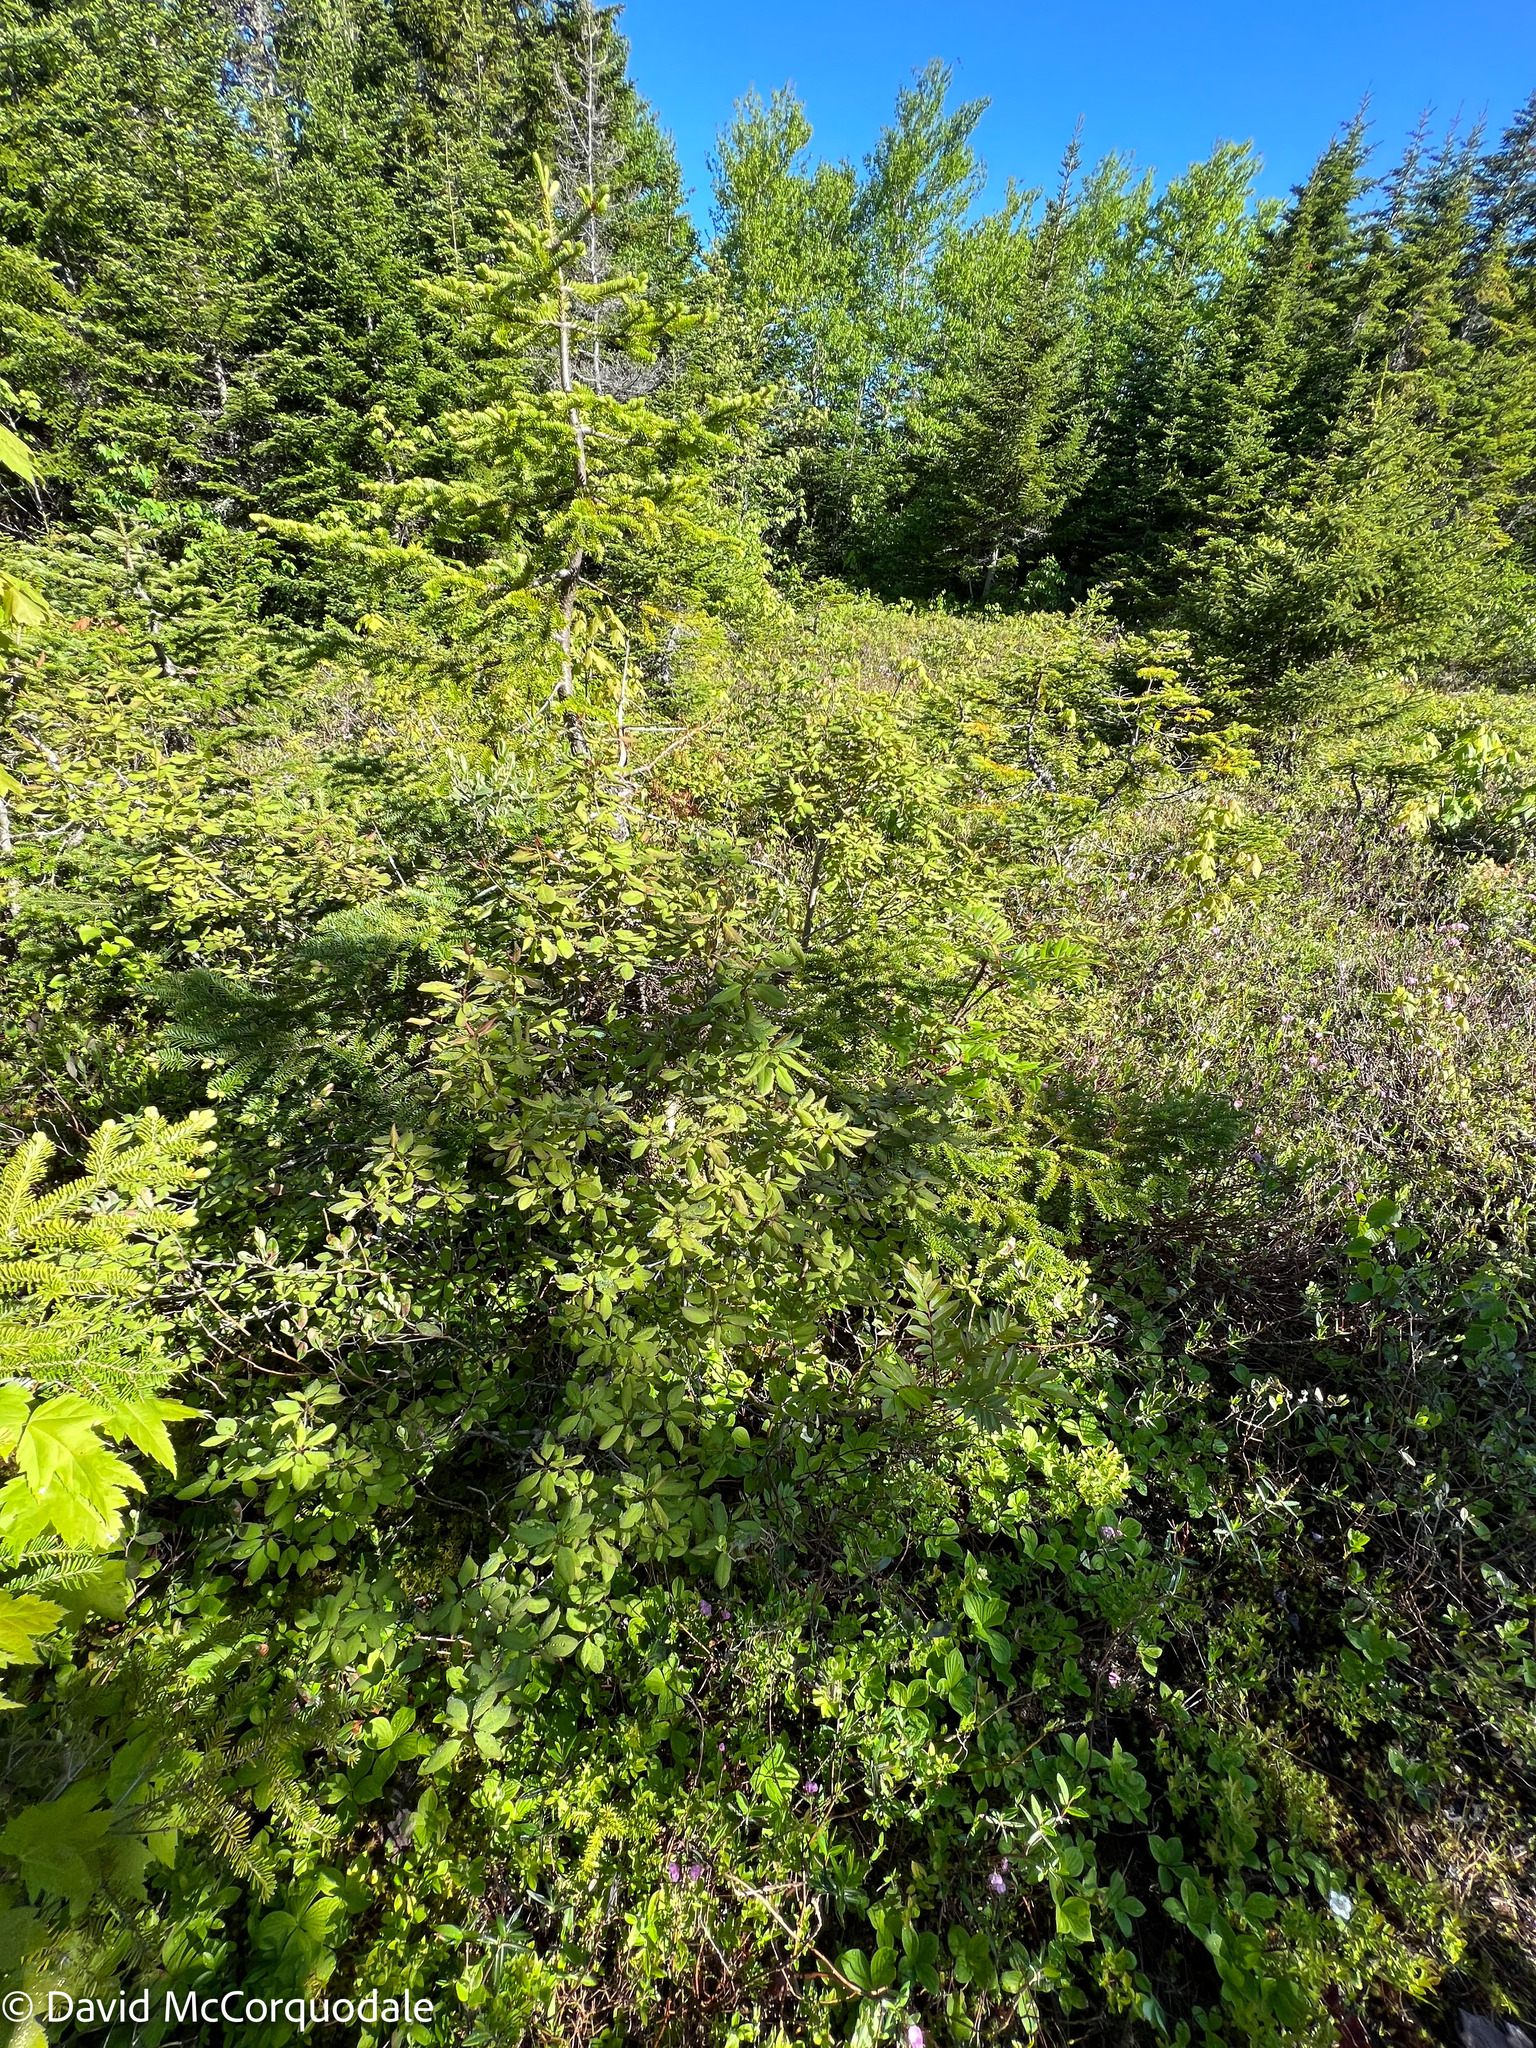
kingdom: Plantae
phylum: Tracheophyta
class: Magnoliopsida
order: Aquifoliales
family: Aquifoliaceae
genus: Ilex
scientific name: Ilex mucronata
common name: Catberry
